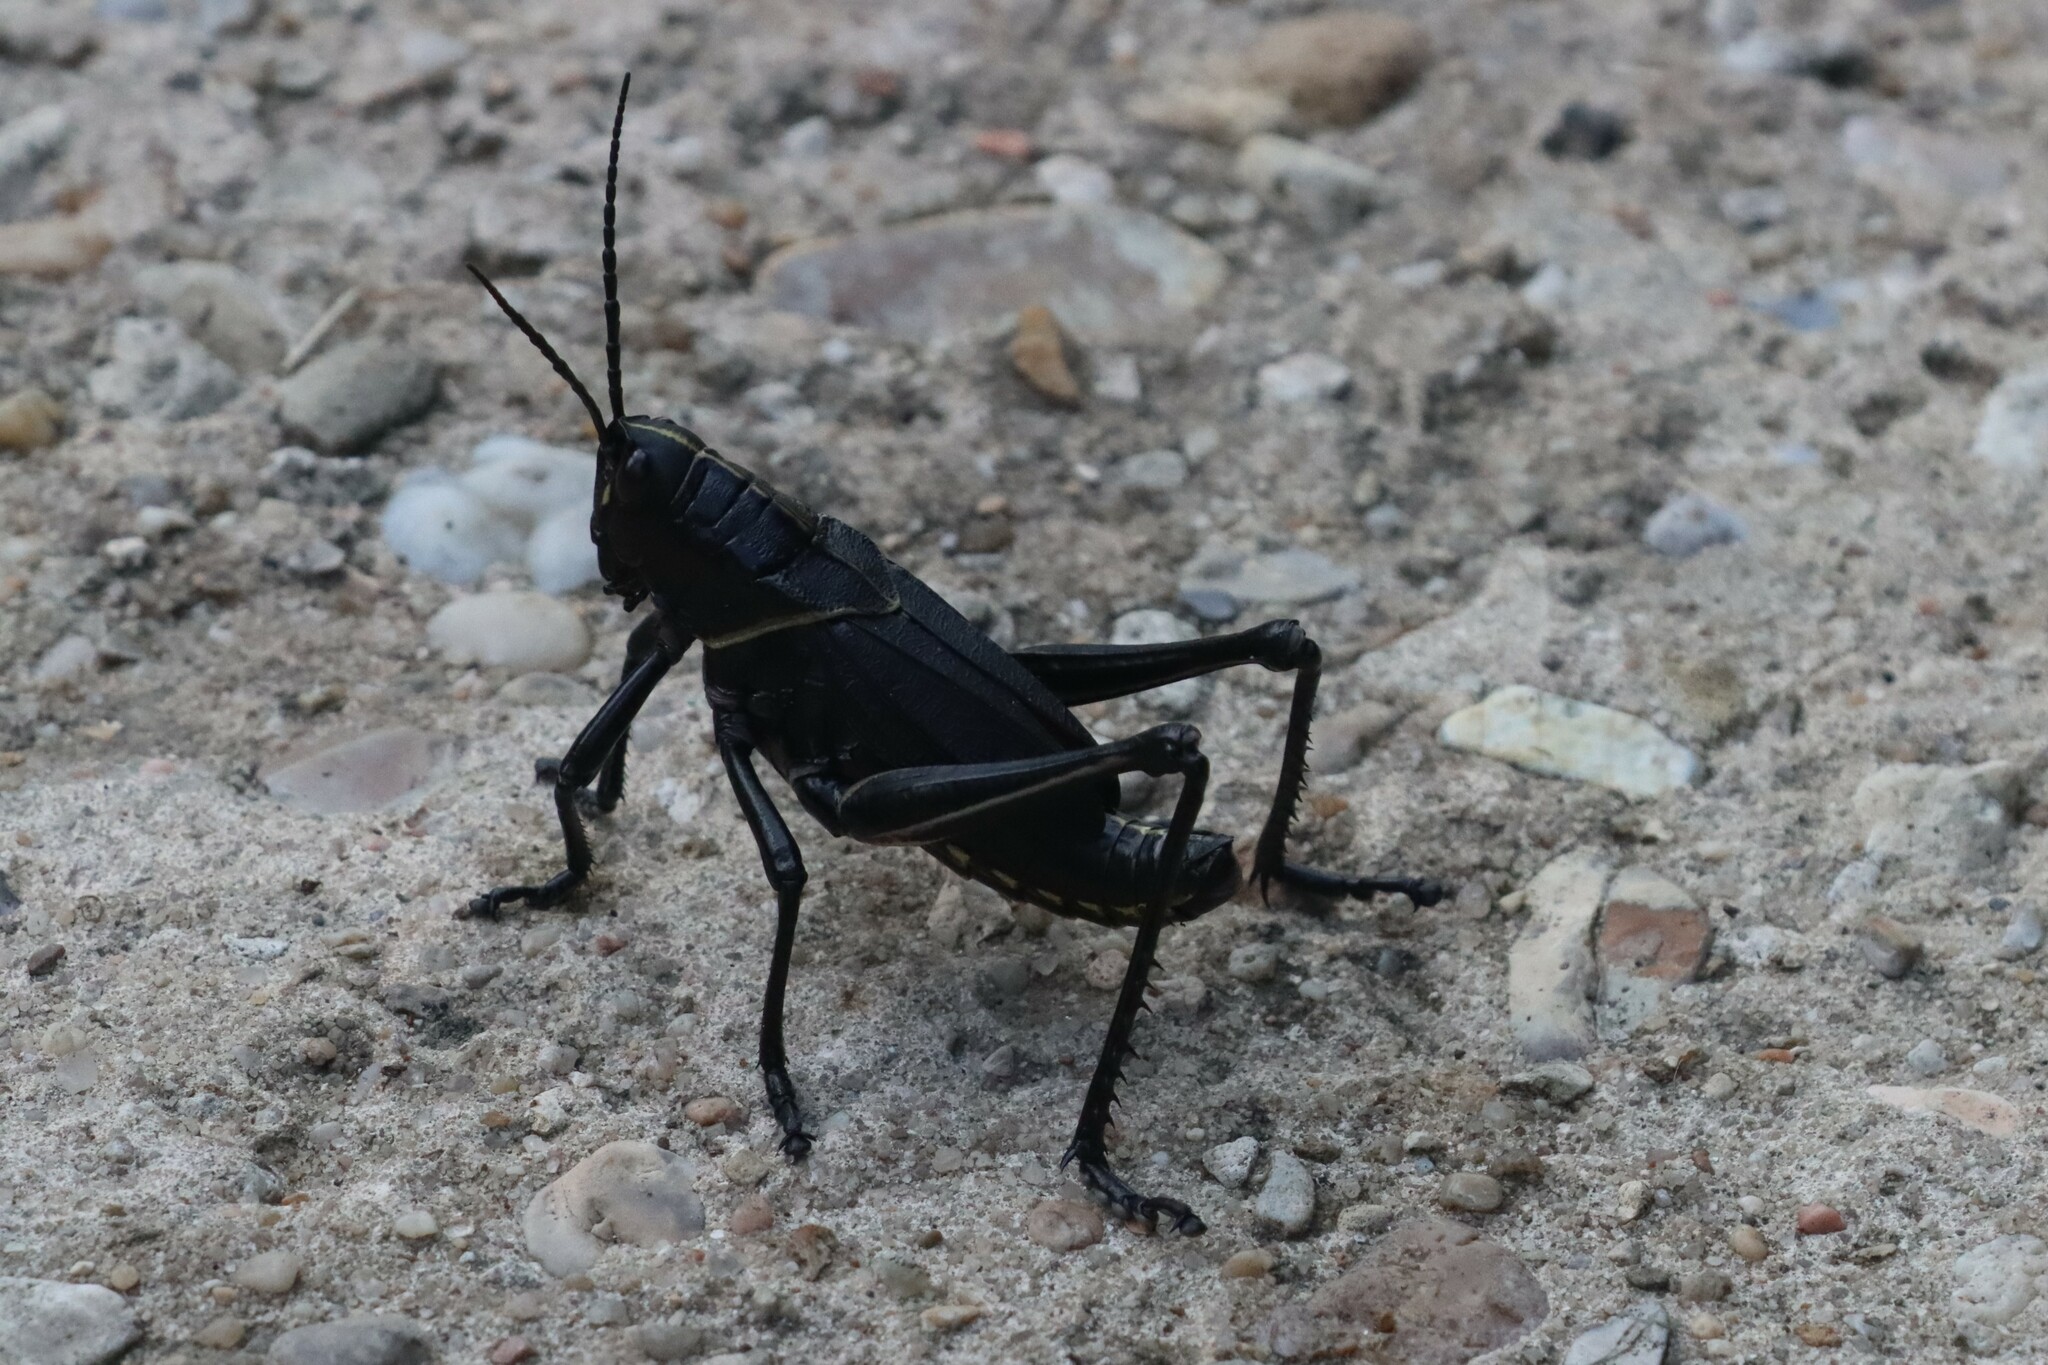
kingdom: Animalia
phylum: Arthropoda
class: Insecta
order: Orthoptera
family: Romaleidae
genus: Romalea
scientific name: Romalea microptera
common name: Eastern lubber grasshopper
